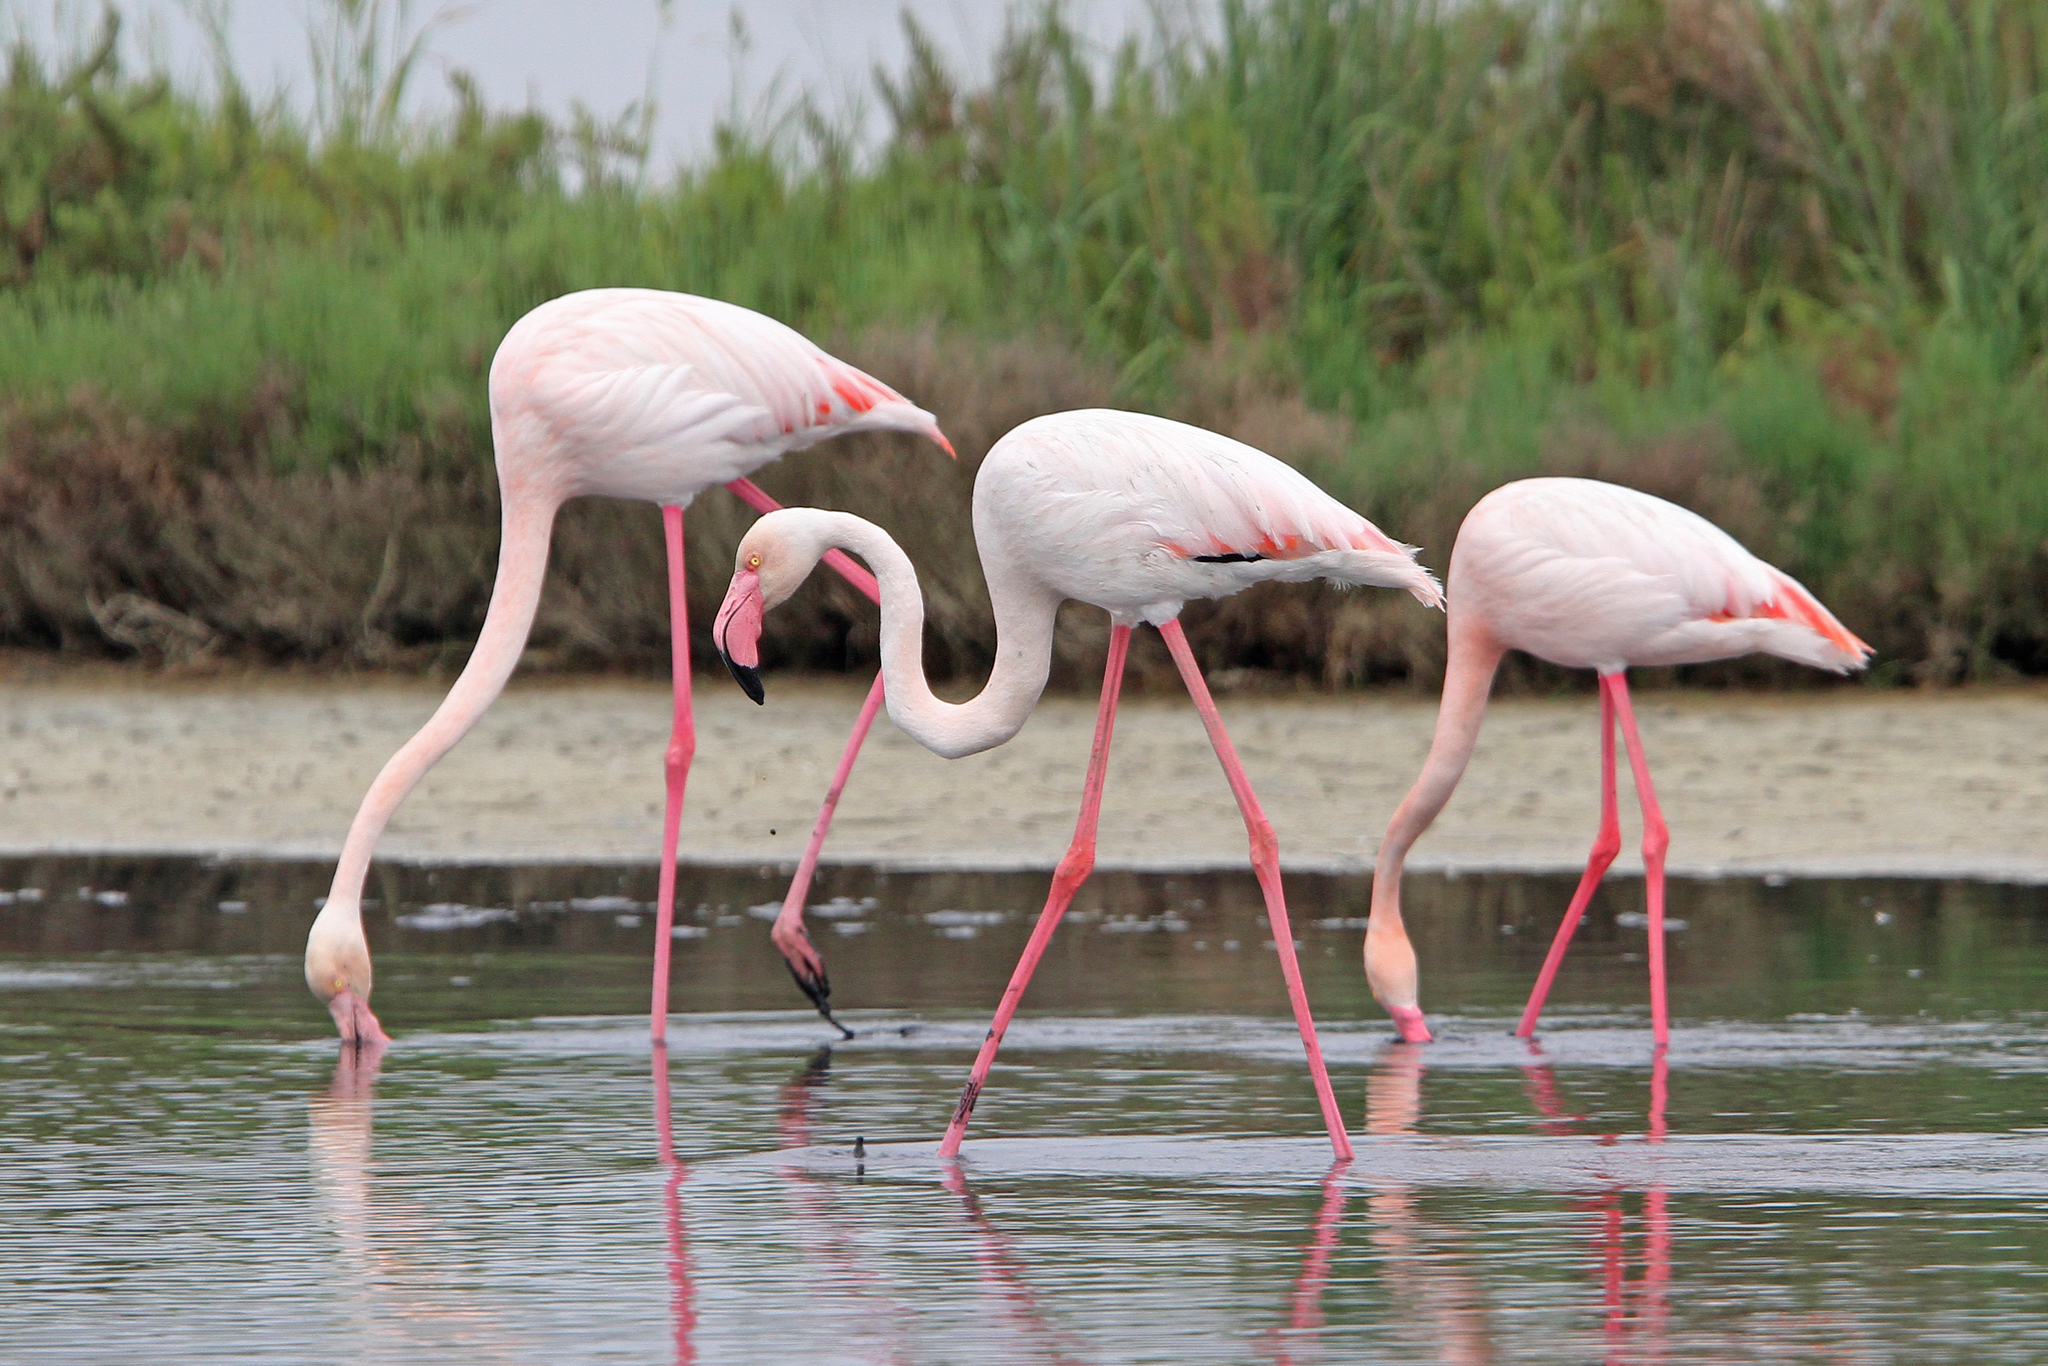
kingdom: Animalia
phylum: Chordata
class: Aves
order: Phoenicopteriformes
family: Phoenicopteridae
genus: Phoenicopterus
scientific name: Phoenicopterus roseus
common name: Greater flamingo
